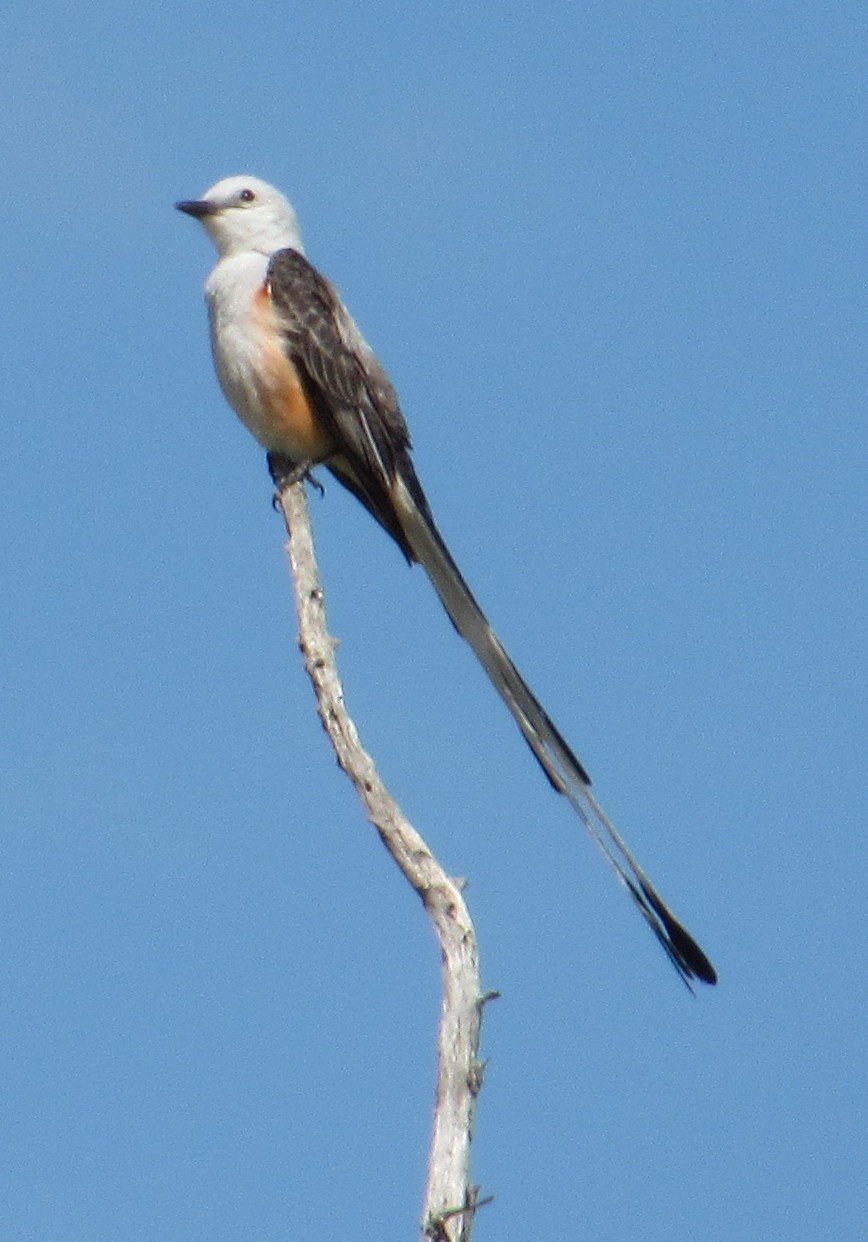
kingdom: Animalia
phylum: Chordata
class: Aves
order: Passeriformes
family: Tyrannidae
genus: Tyrannus
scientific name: Tyrannus forficatus
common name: Scissor-tailed flycatcher
